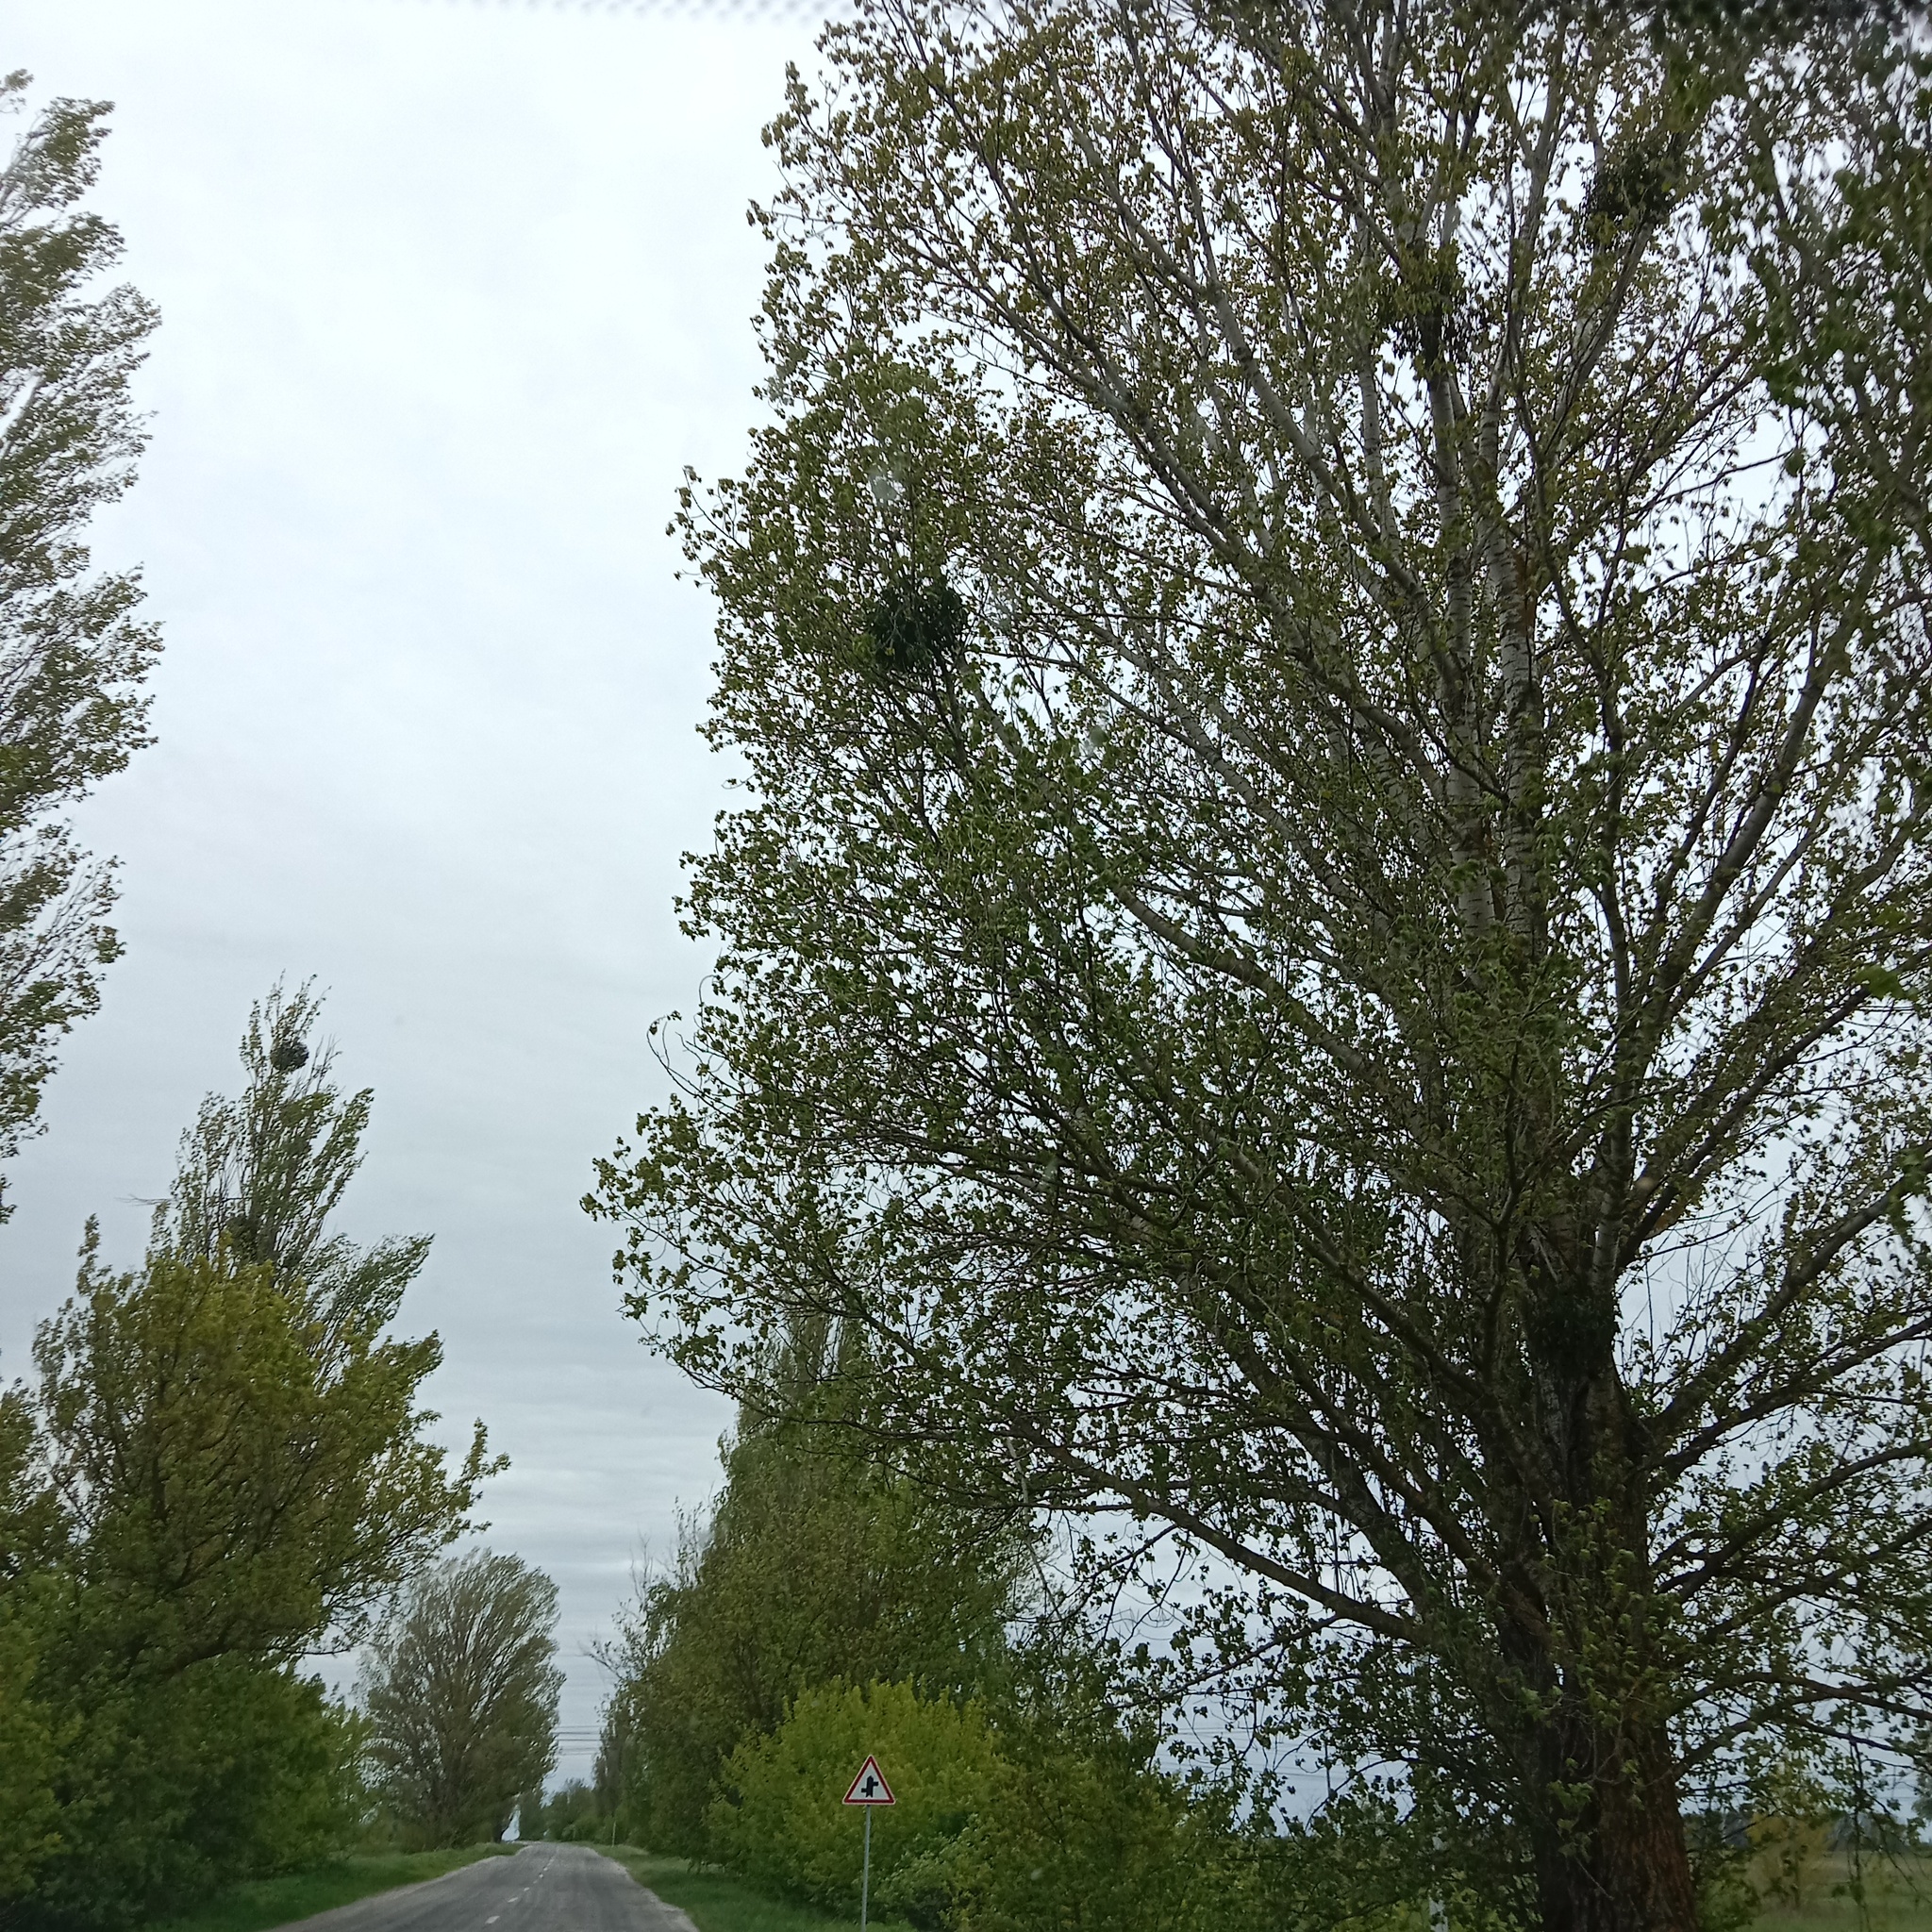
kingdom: Plantae
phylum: Tracheophyta
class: Magnoliopsida
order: Santalales
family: Viscaceae
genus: Viscum
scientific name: Viscum album
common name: Mistletoe
